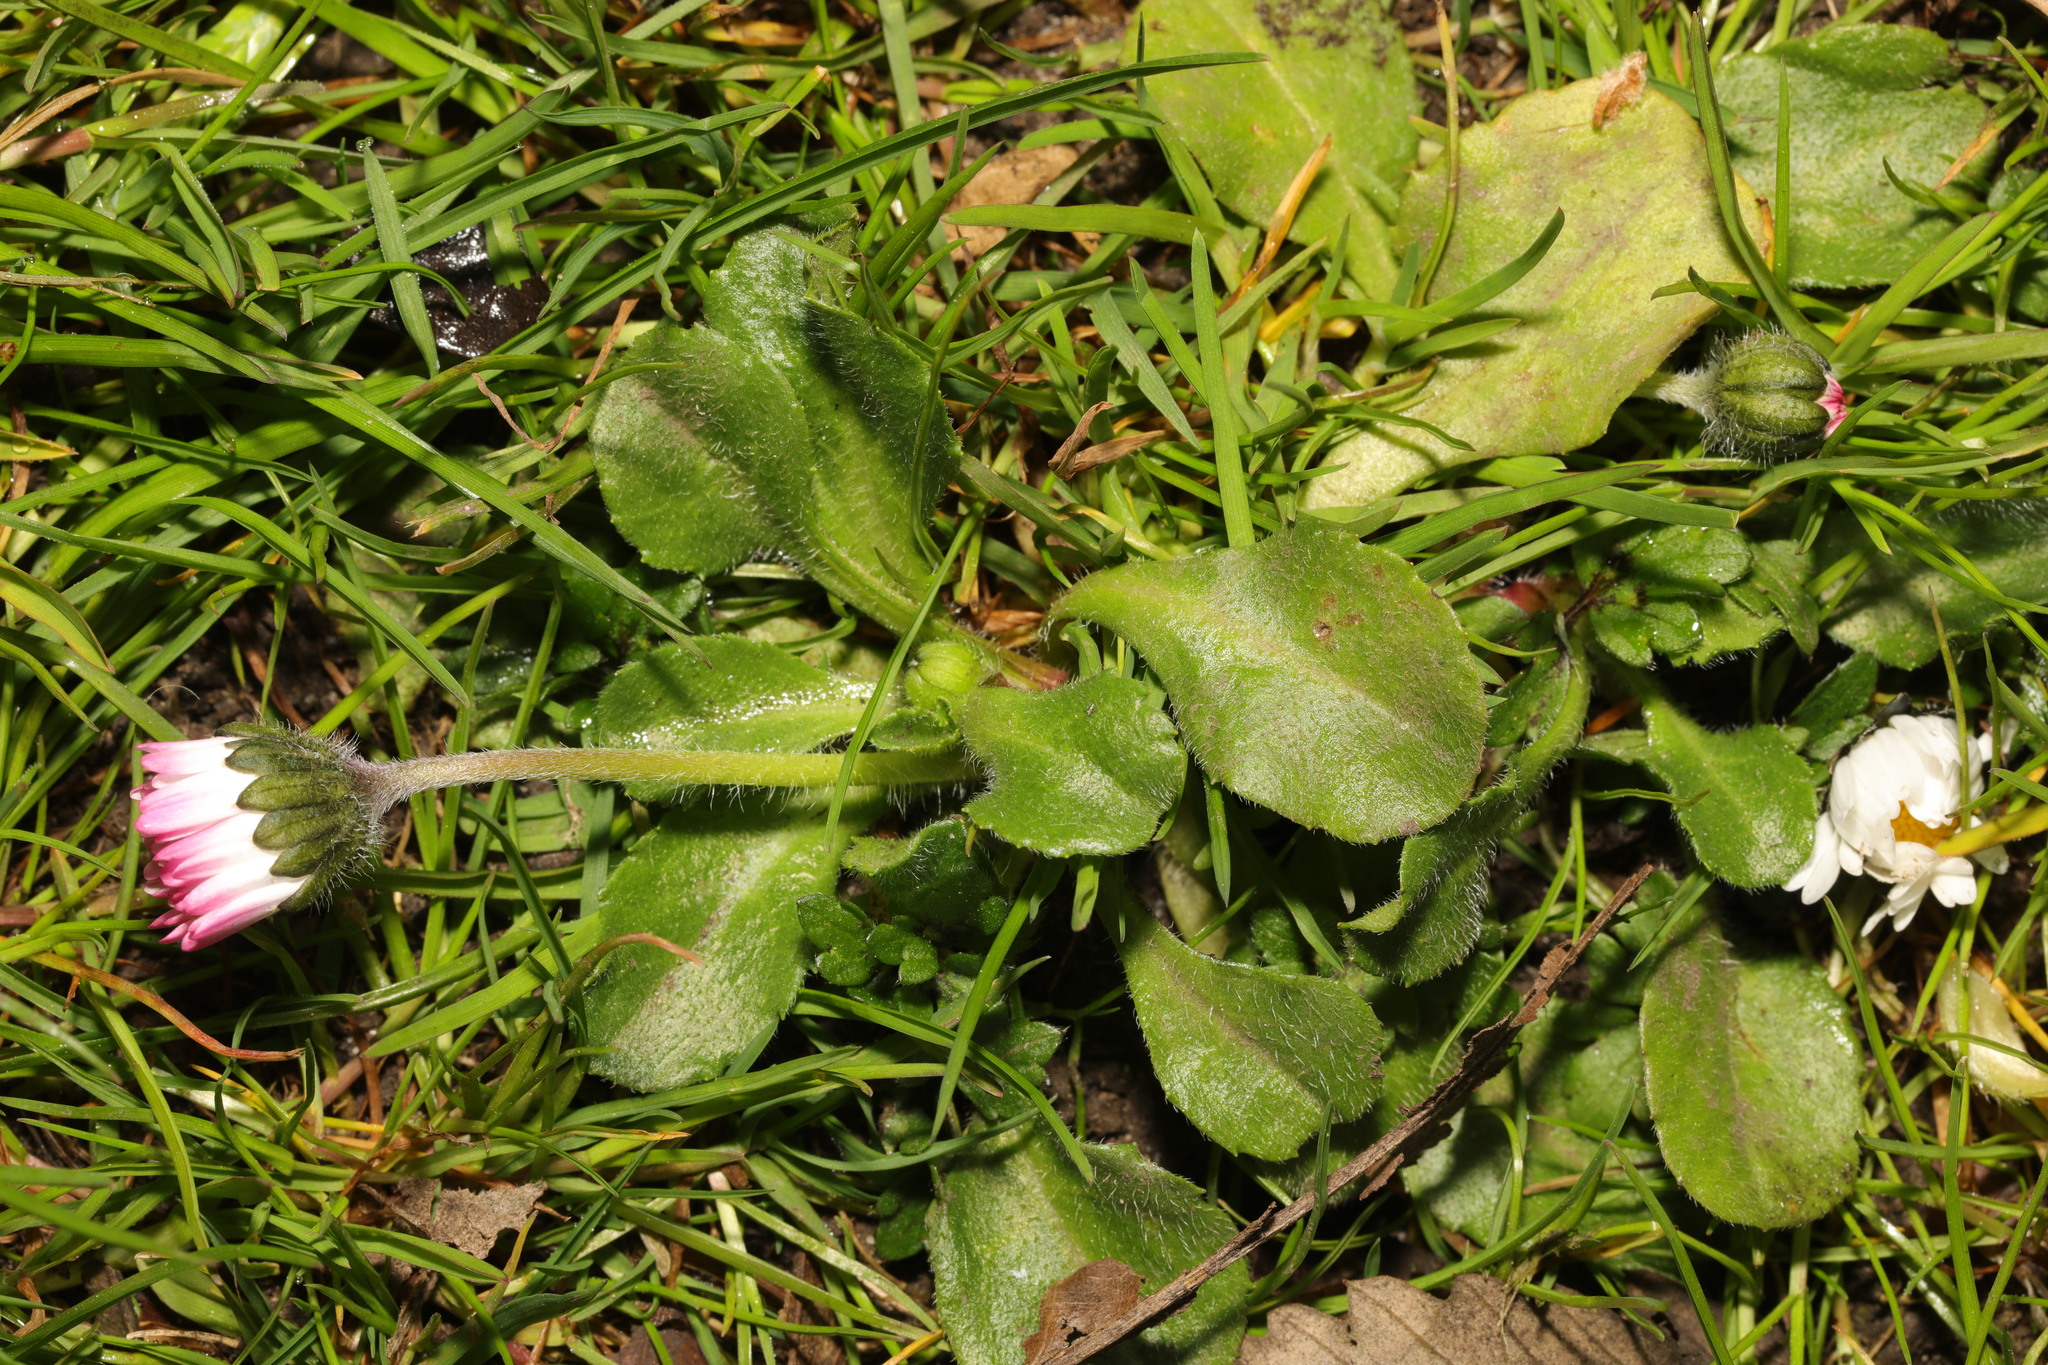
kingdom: Plantae
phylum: Tracheophyta
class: Magnoliopsida
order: Asterales
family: Asteraceae
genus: Bellis
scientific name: Bellis perennis
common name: Lawndaisy
